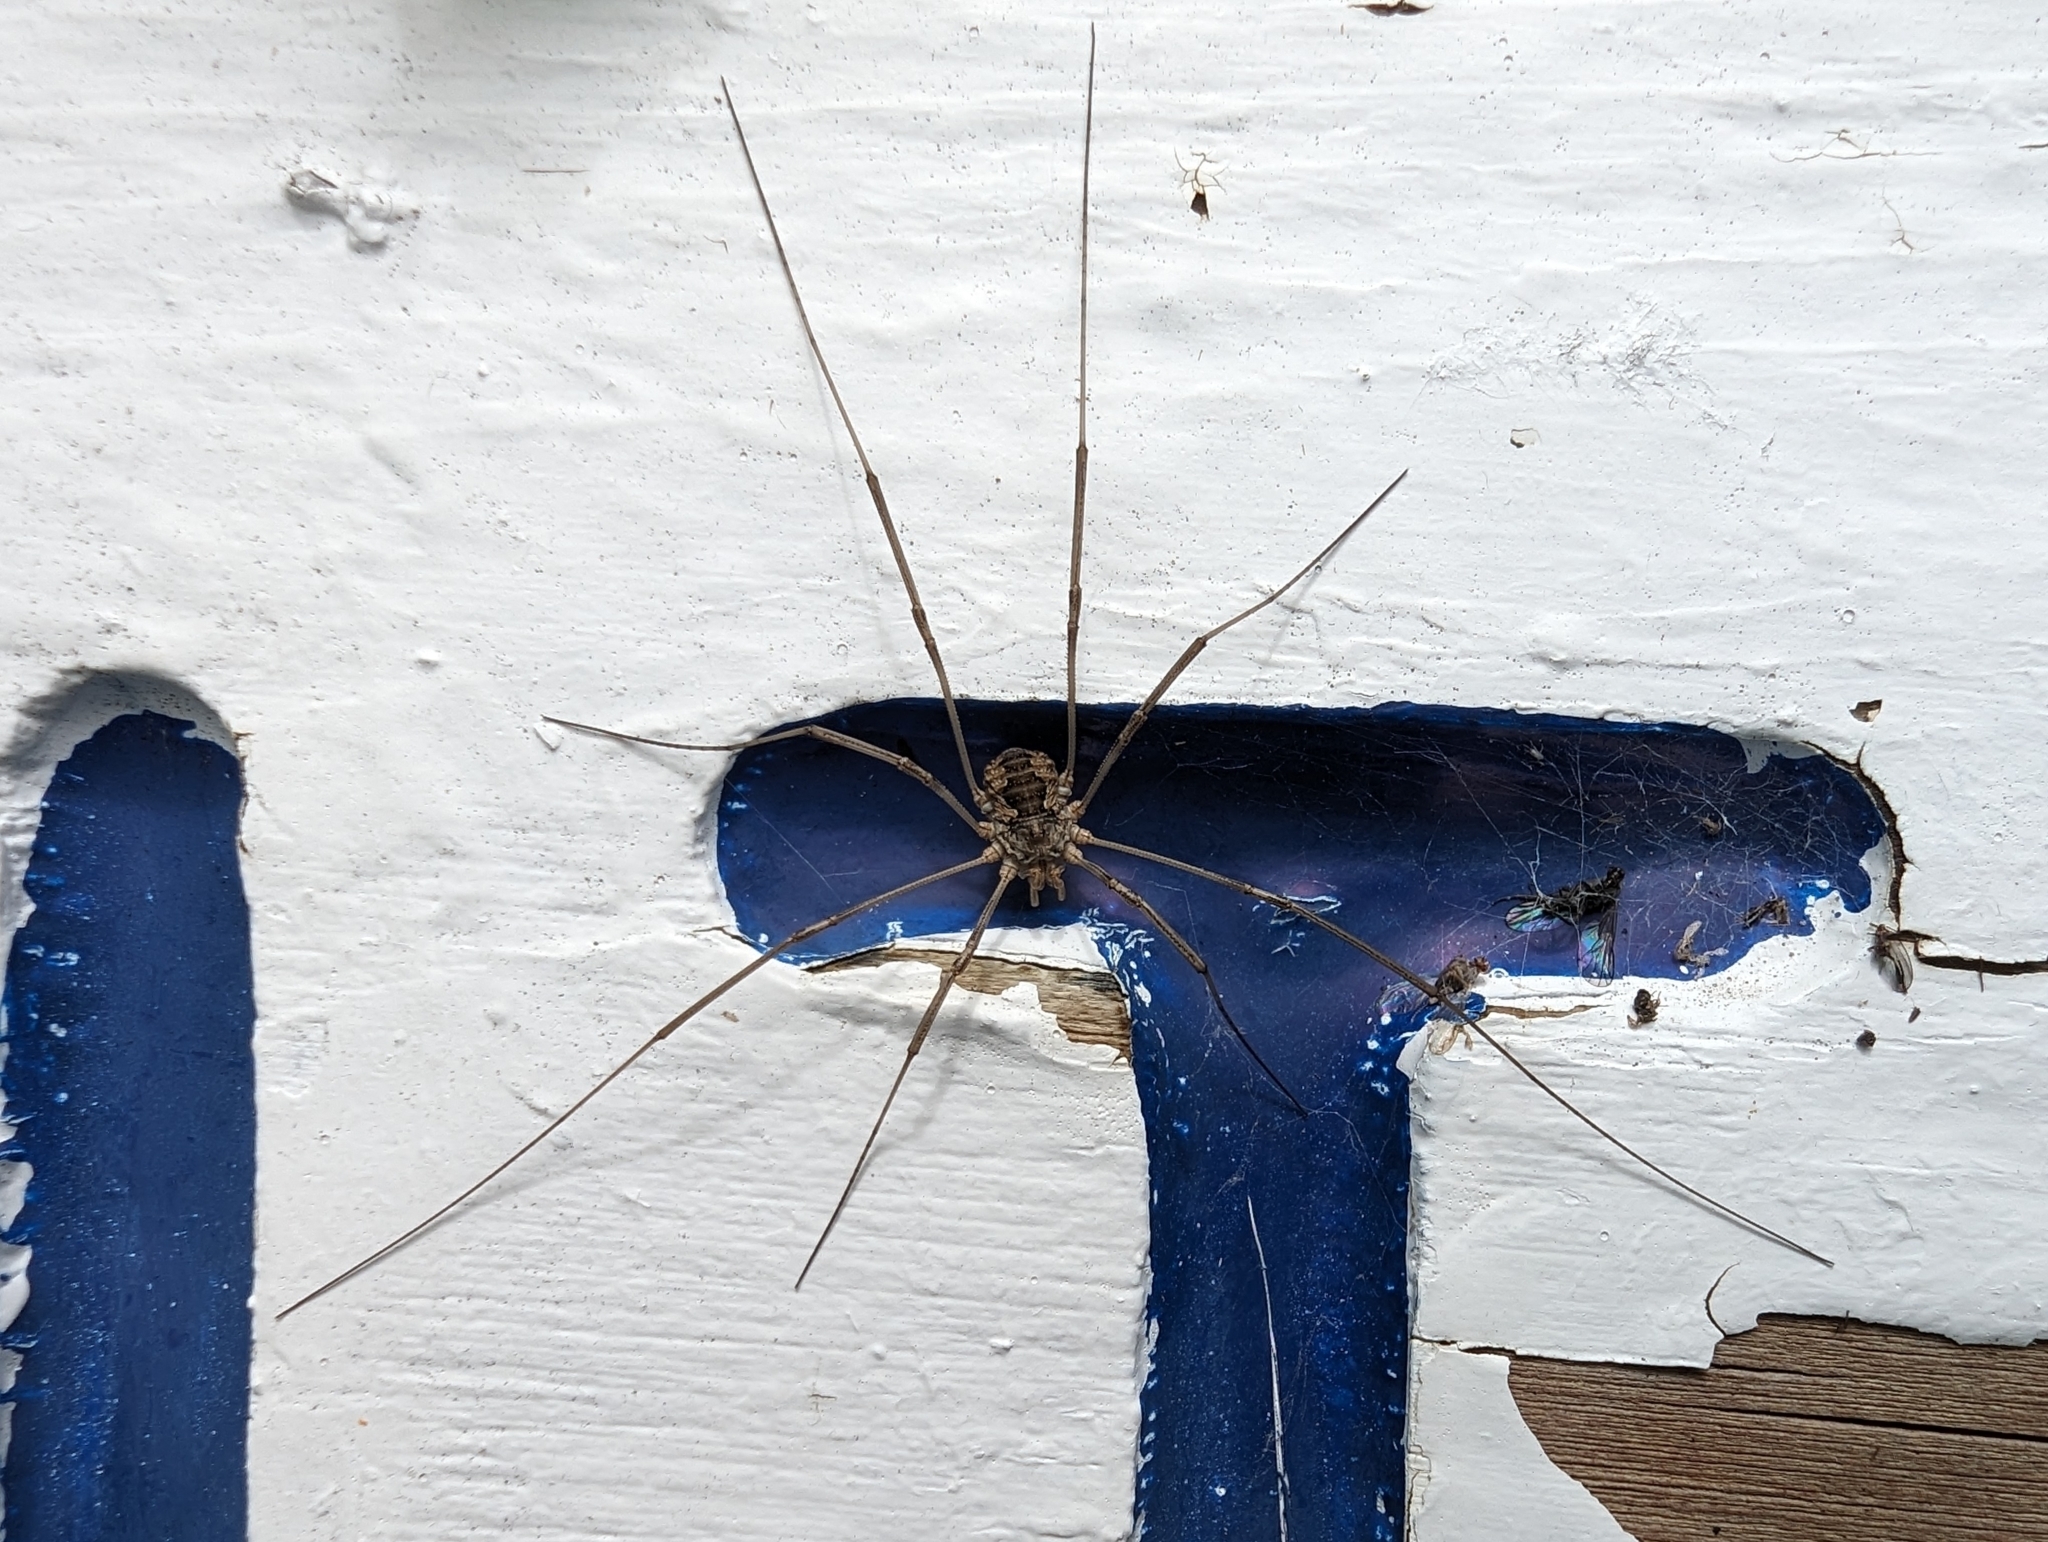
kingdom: Animalia
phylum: Arthropoda
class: Arachnida
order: Opiliones
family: Phalangiidae
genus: Phalangium
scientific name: Phalangium opilio
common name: Daddy longleg
